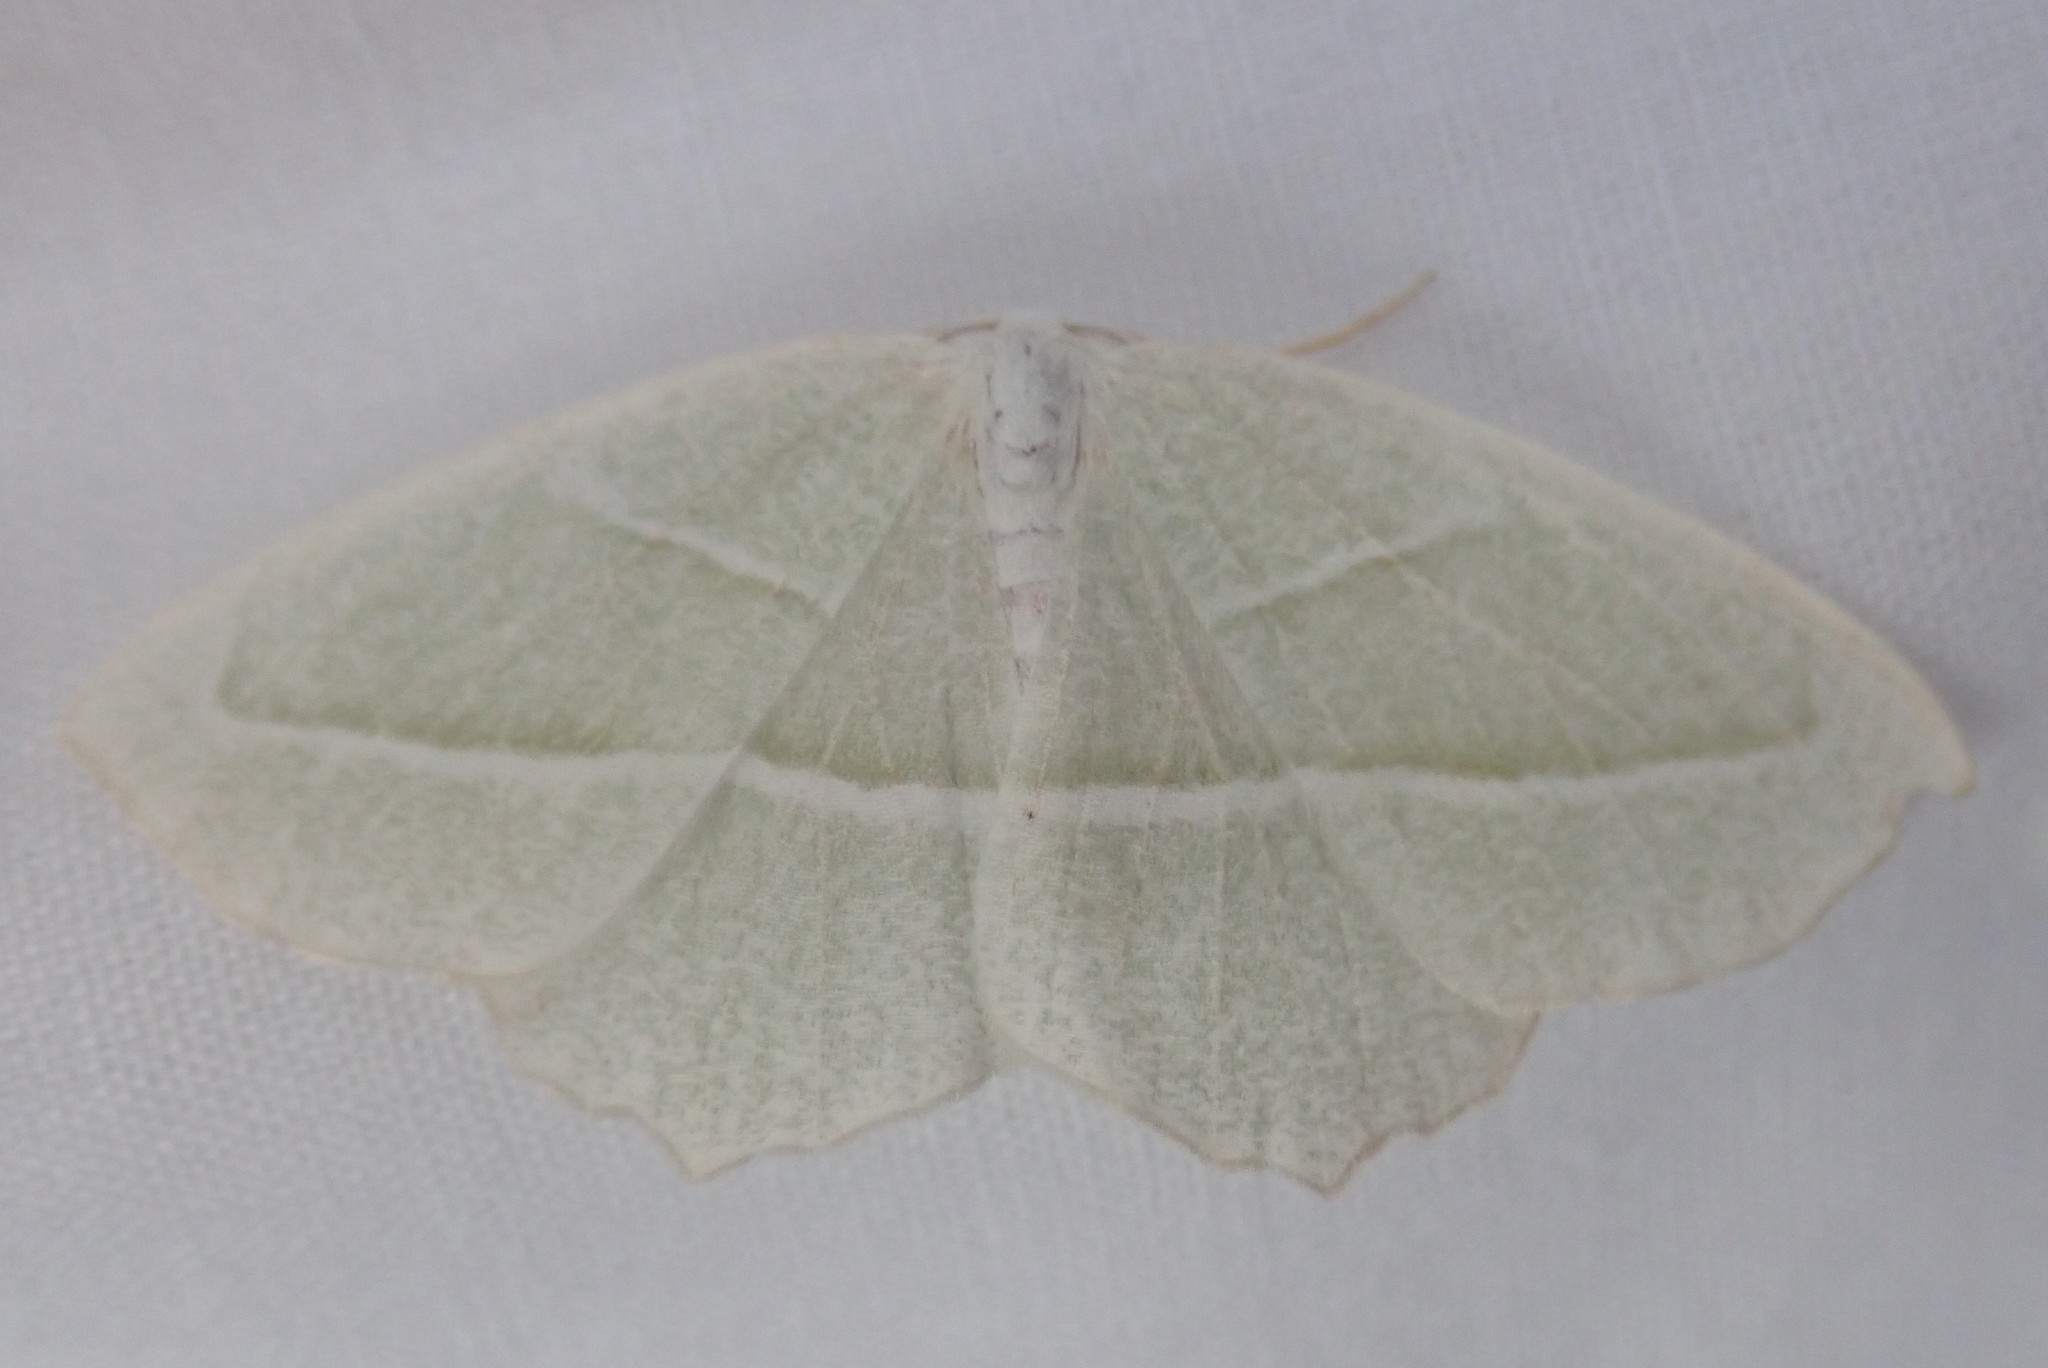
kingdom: Animalia
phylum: Arthropoda
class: Insecta
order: Lepidoptera
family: Geometridae
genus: Campaea
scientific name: Campaea perlata
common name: Fringed looper
